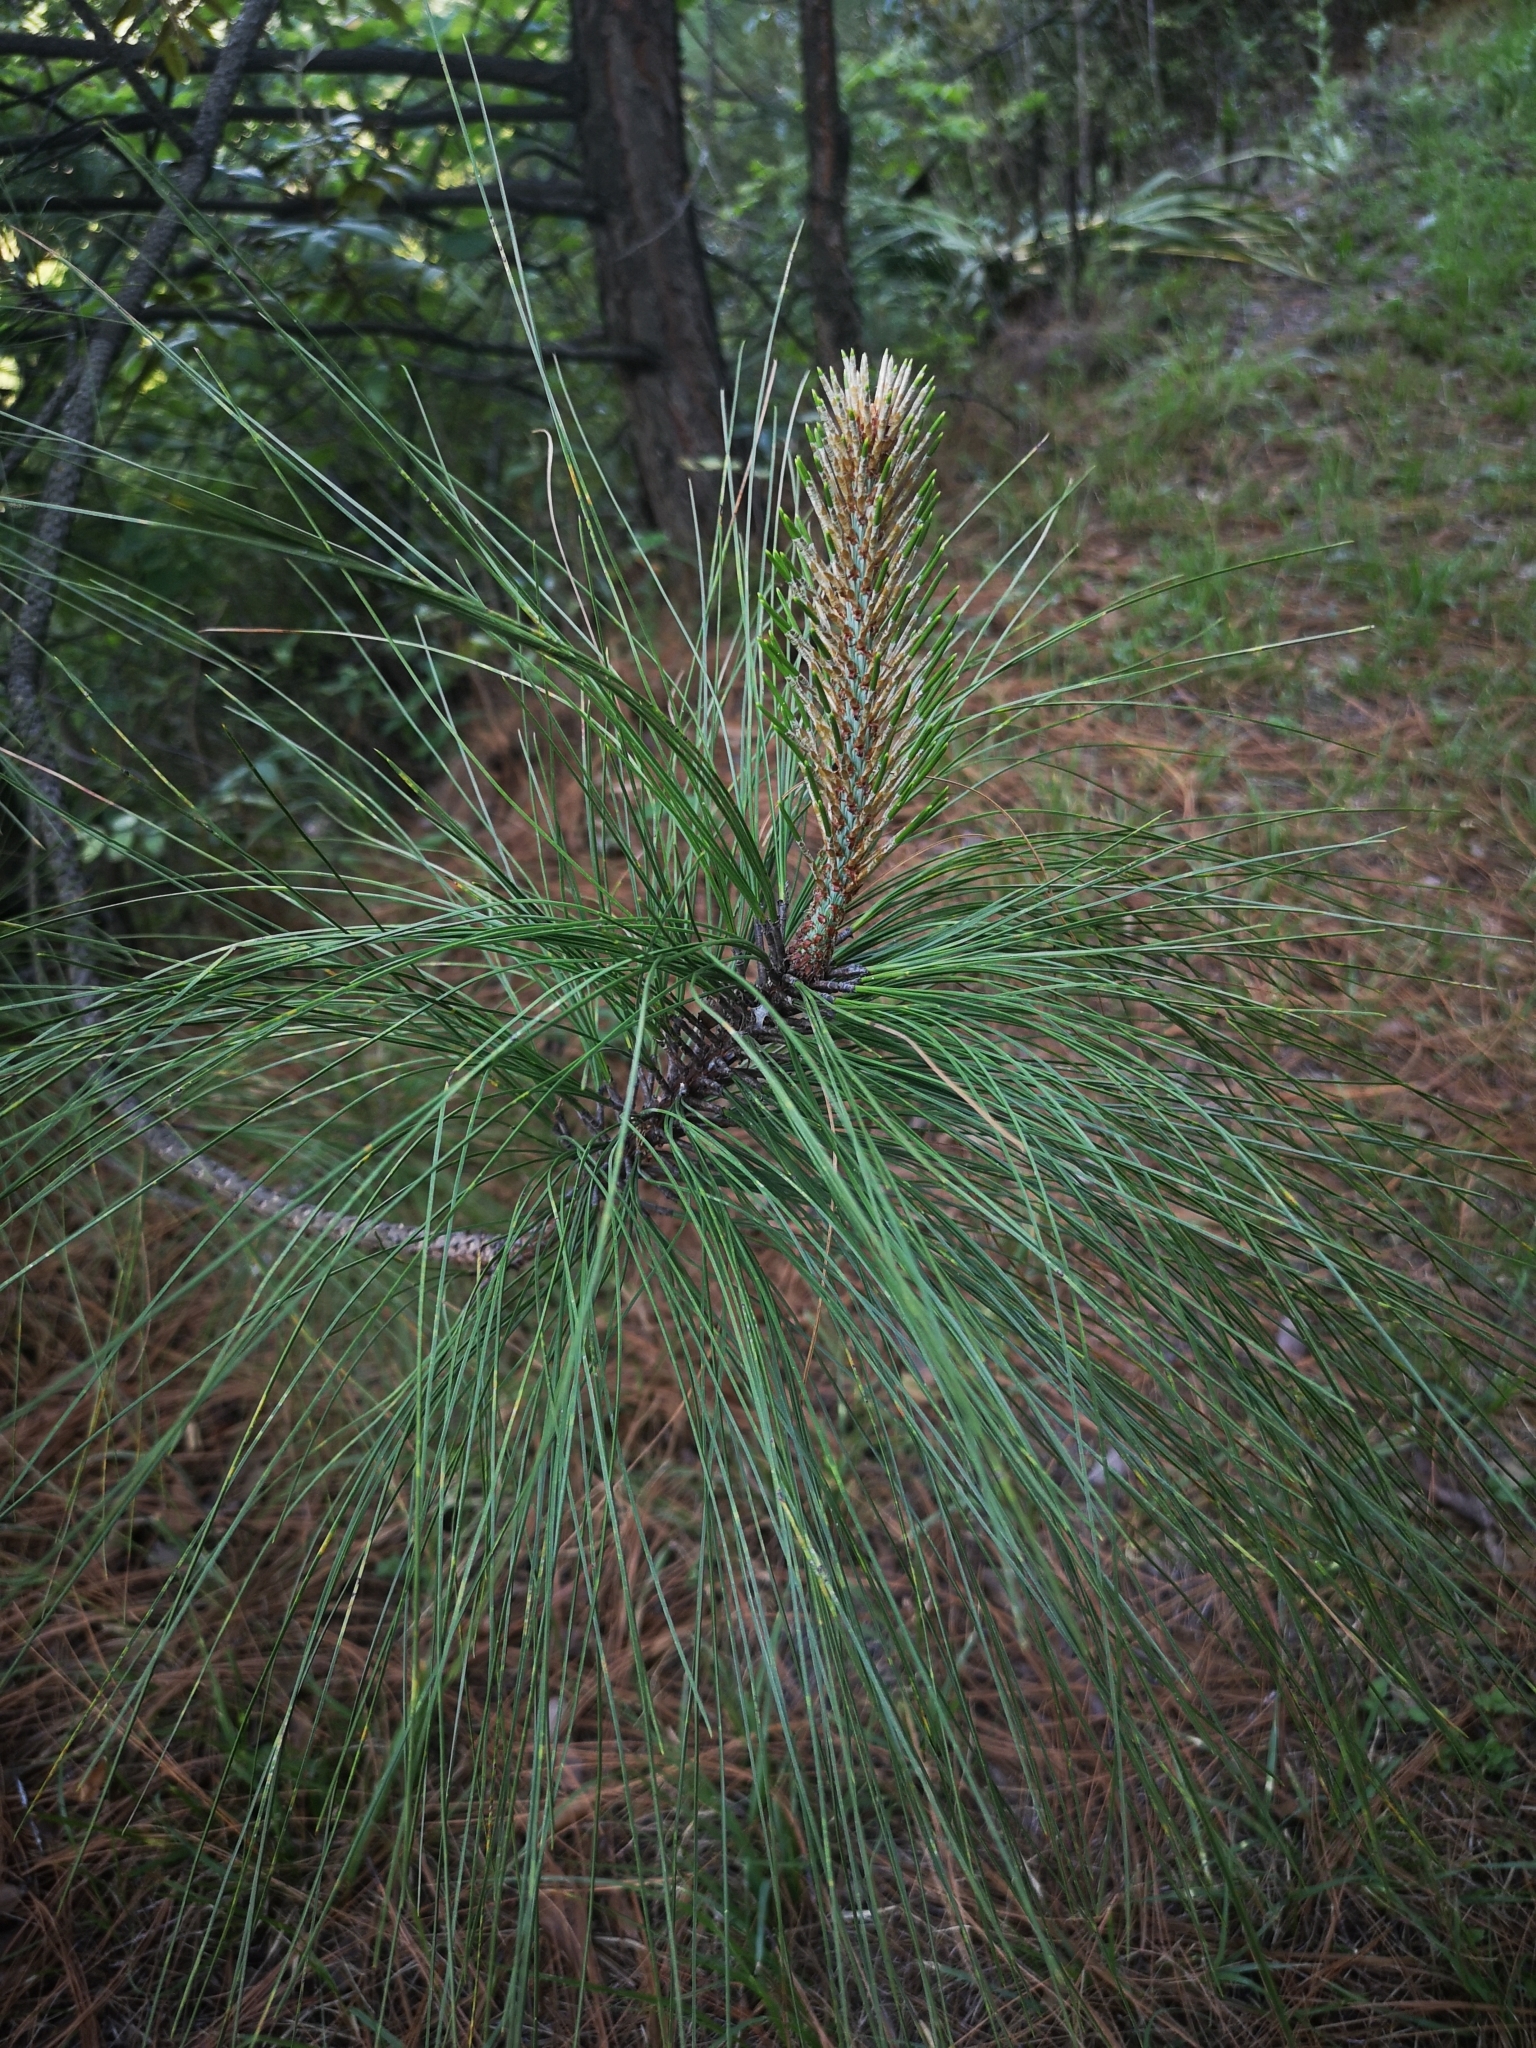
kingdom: Plantae
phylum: Tracheophyta
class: Pinopsida
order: Pinales
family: Pinaceae
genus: Pinus
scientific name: Pinus pseudostrobus
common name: False weymouth pine
